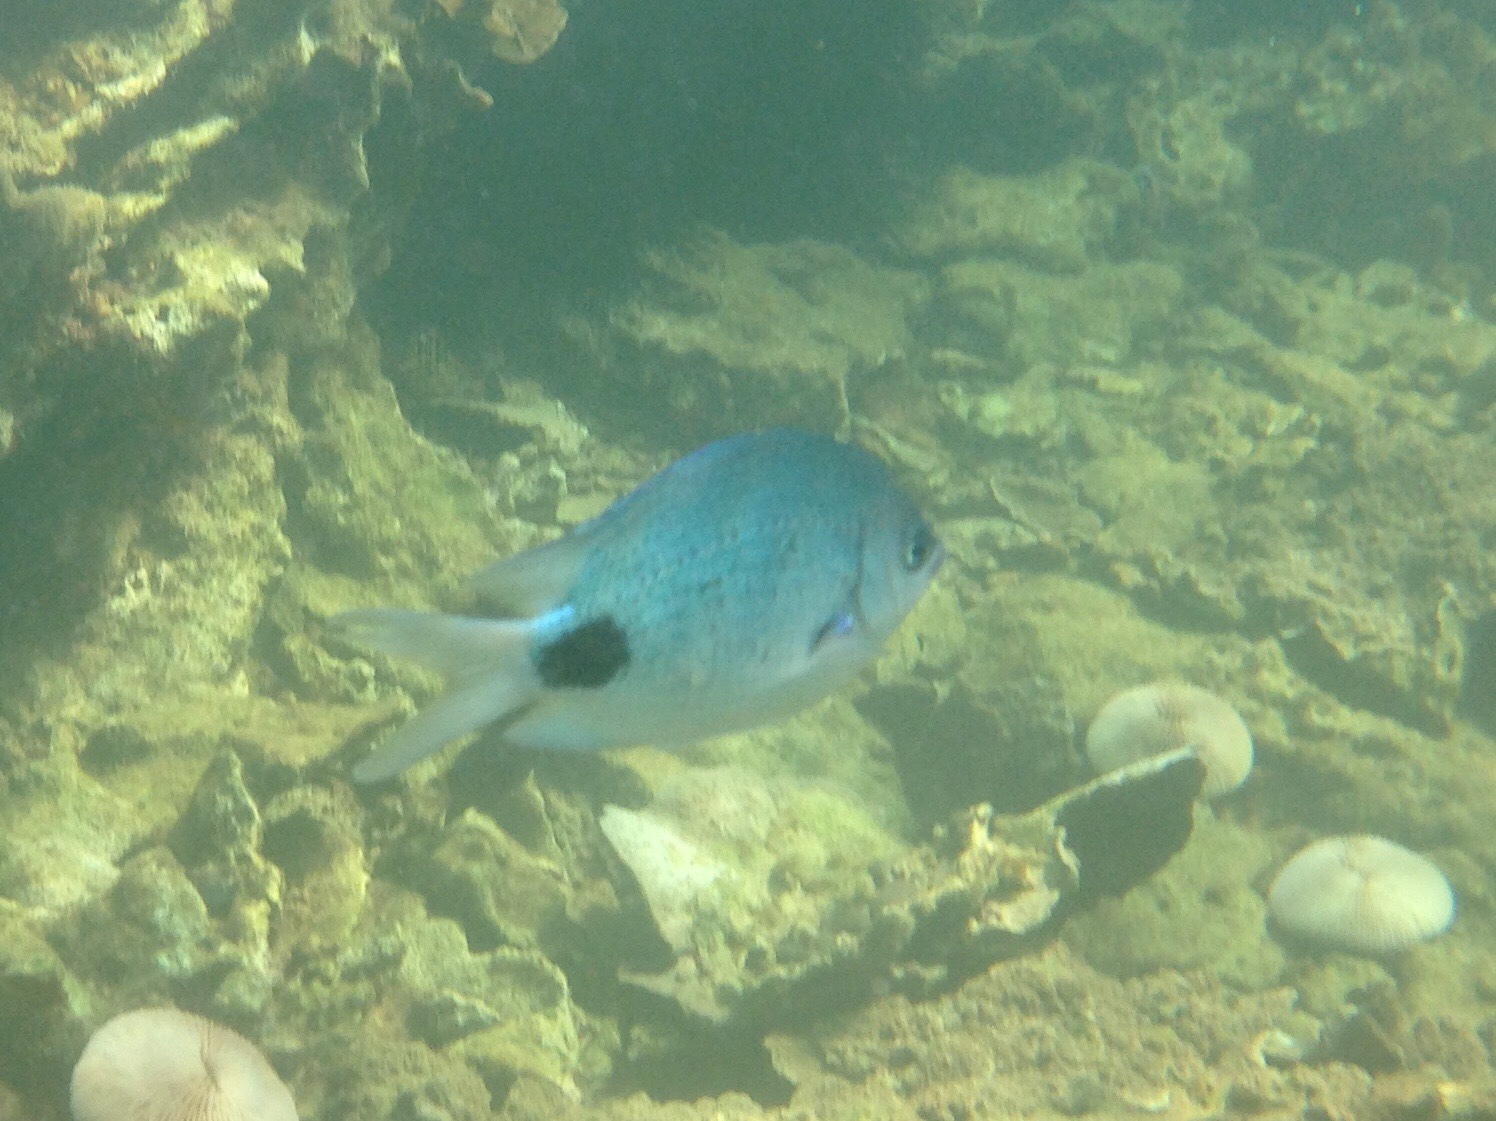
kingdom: Animalia
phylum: Chordata
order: Perciformes
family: Pomacentridae
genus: Abudefduf
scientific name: Abudefduf sparoides
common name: False-eye sergeant
